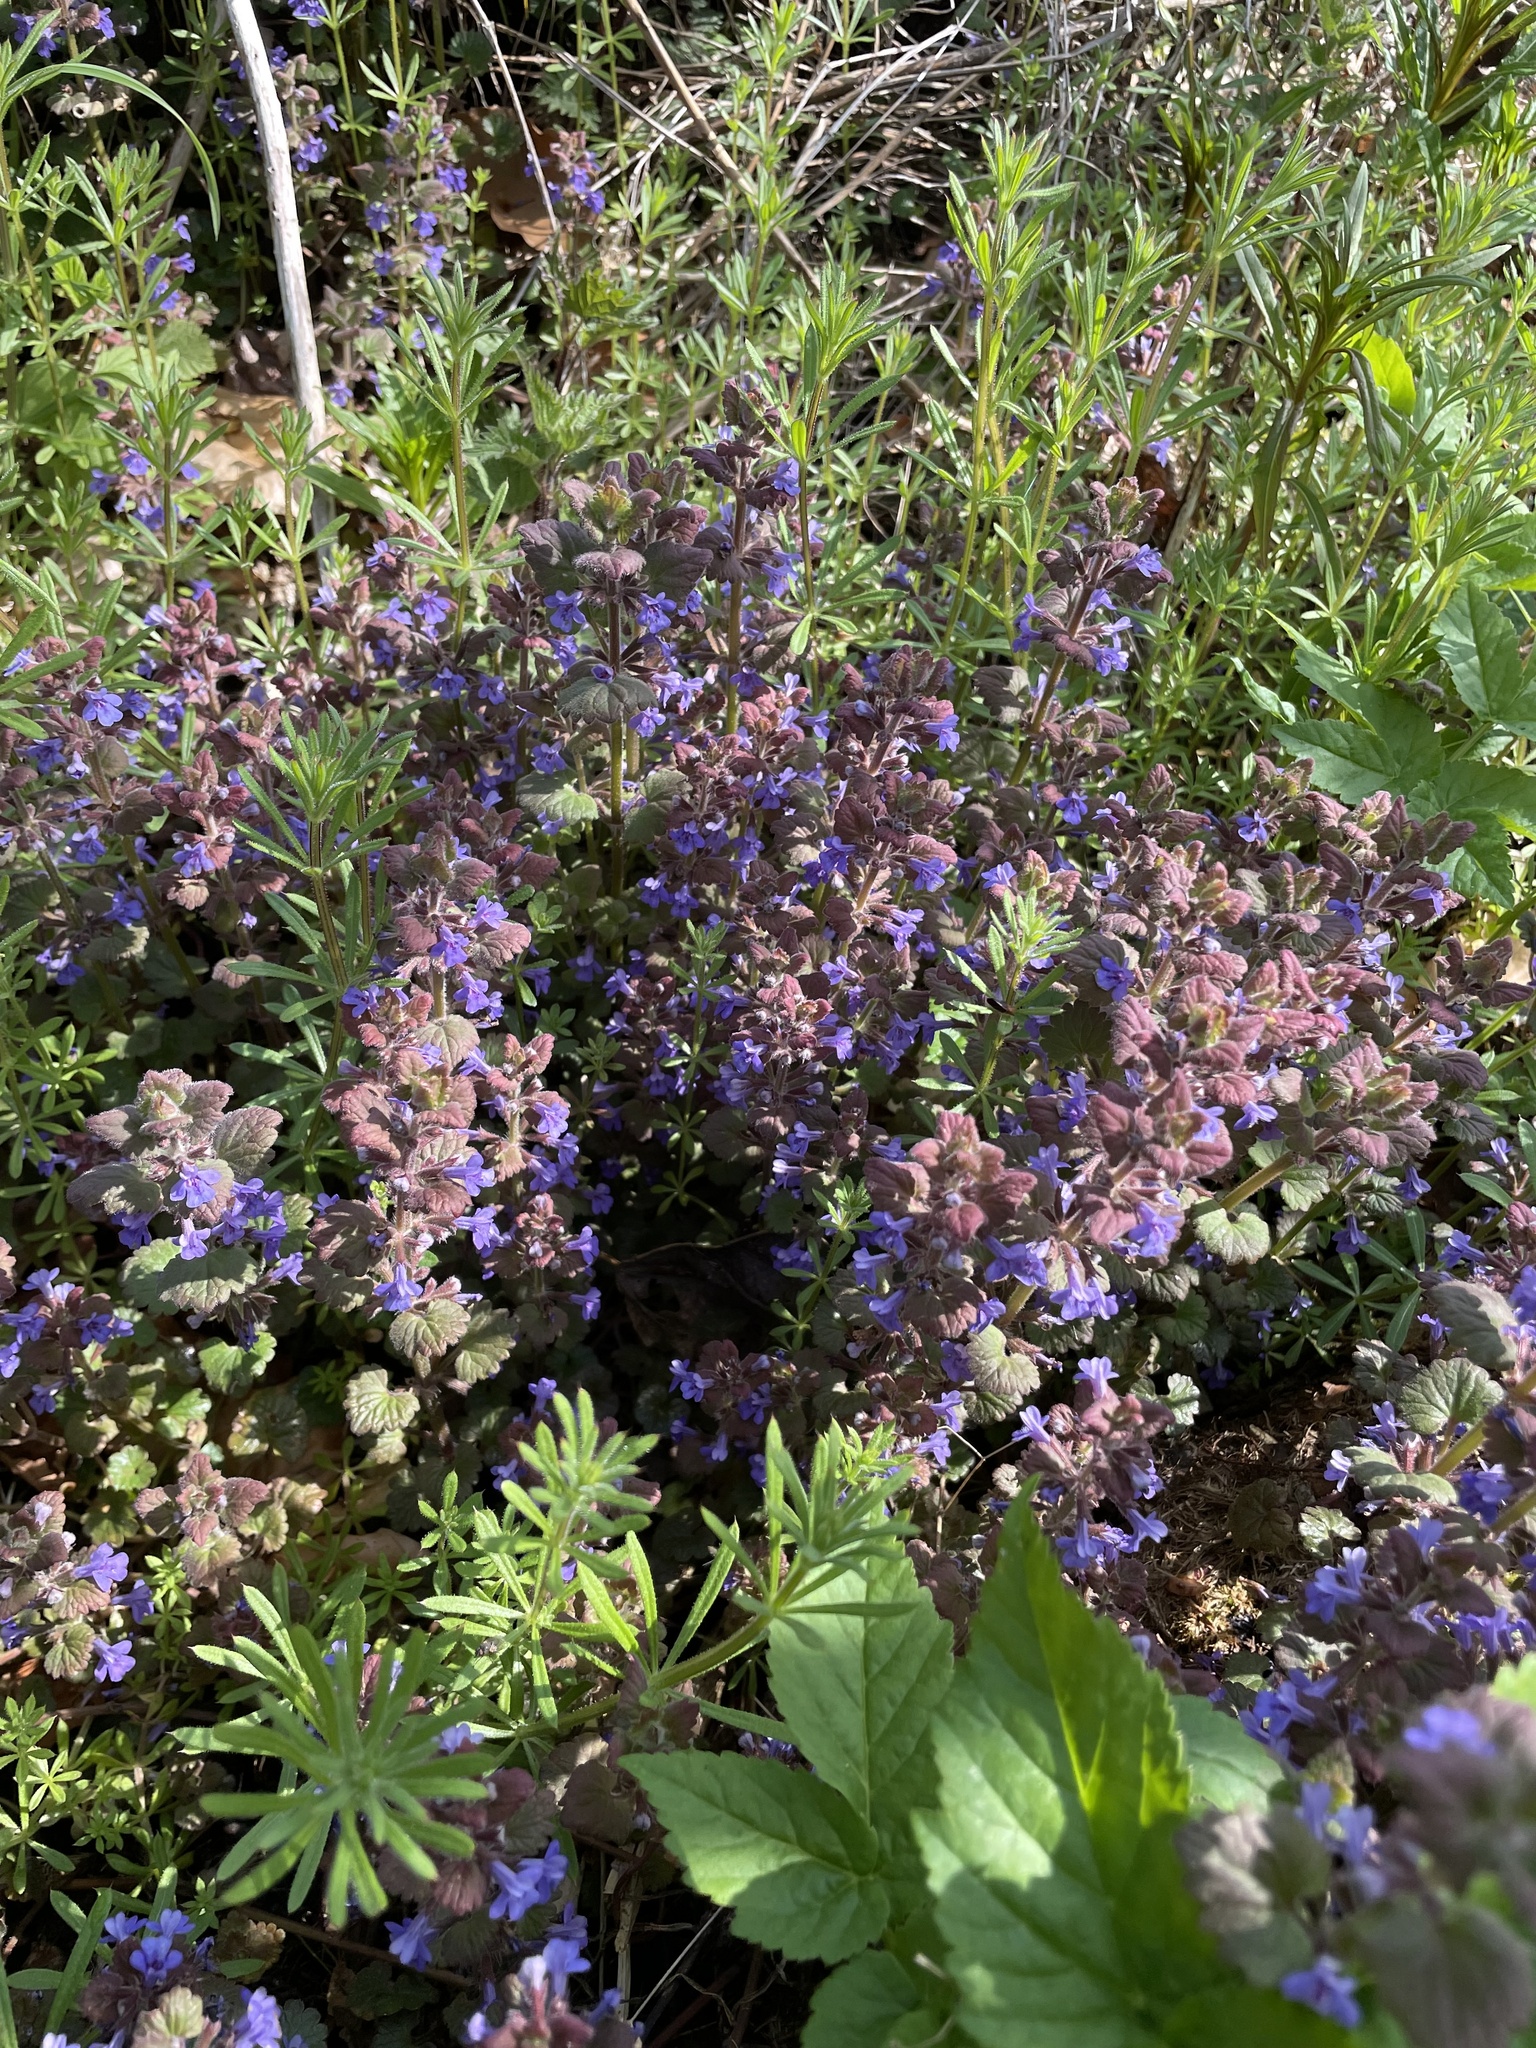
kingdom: Plantae
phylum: Tracheophyta
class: Magnoliopsida
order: Lamiales
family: Lamiaceae
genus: Glechoma
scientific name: Glechoma hederacea
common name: Ground ivy
